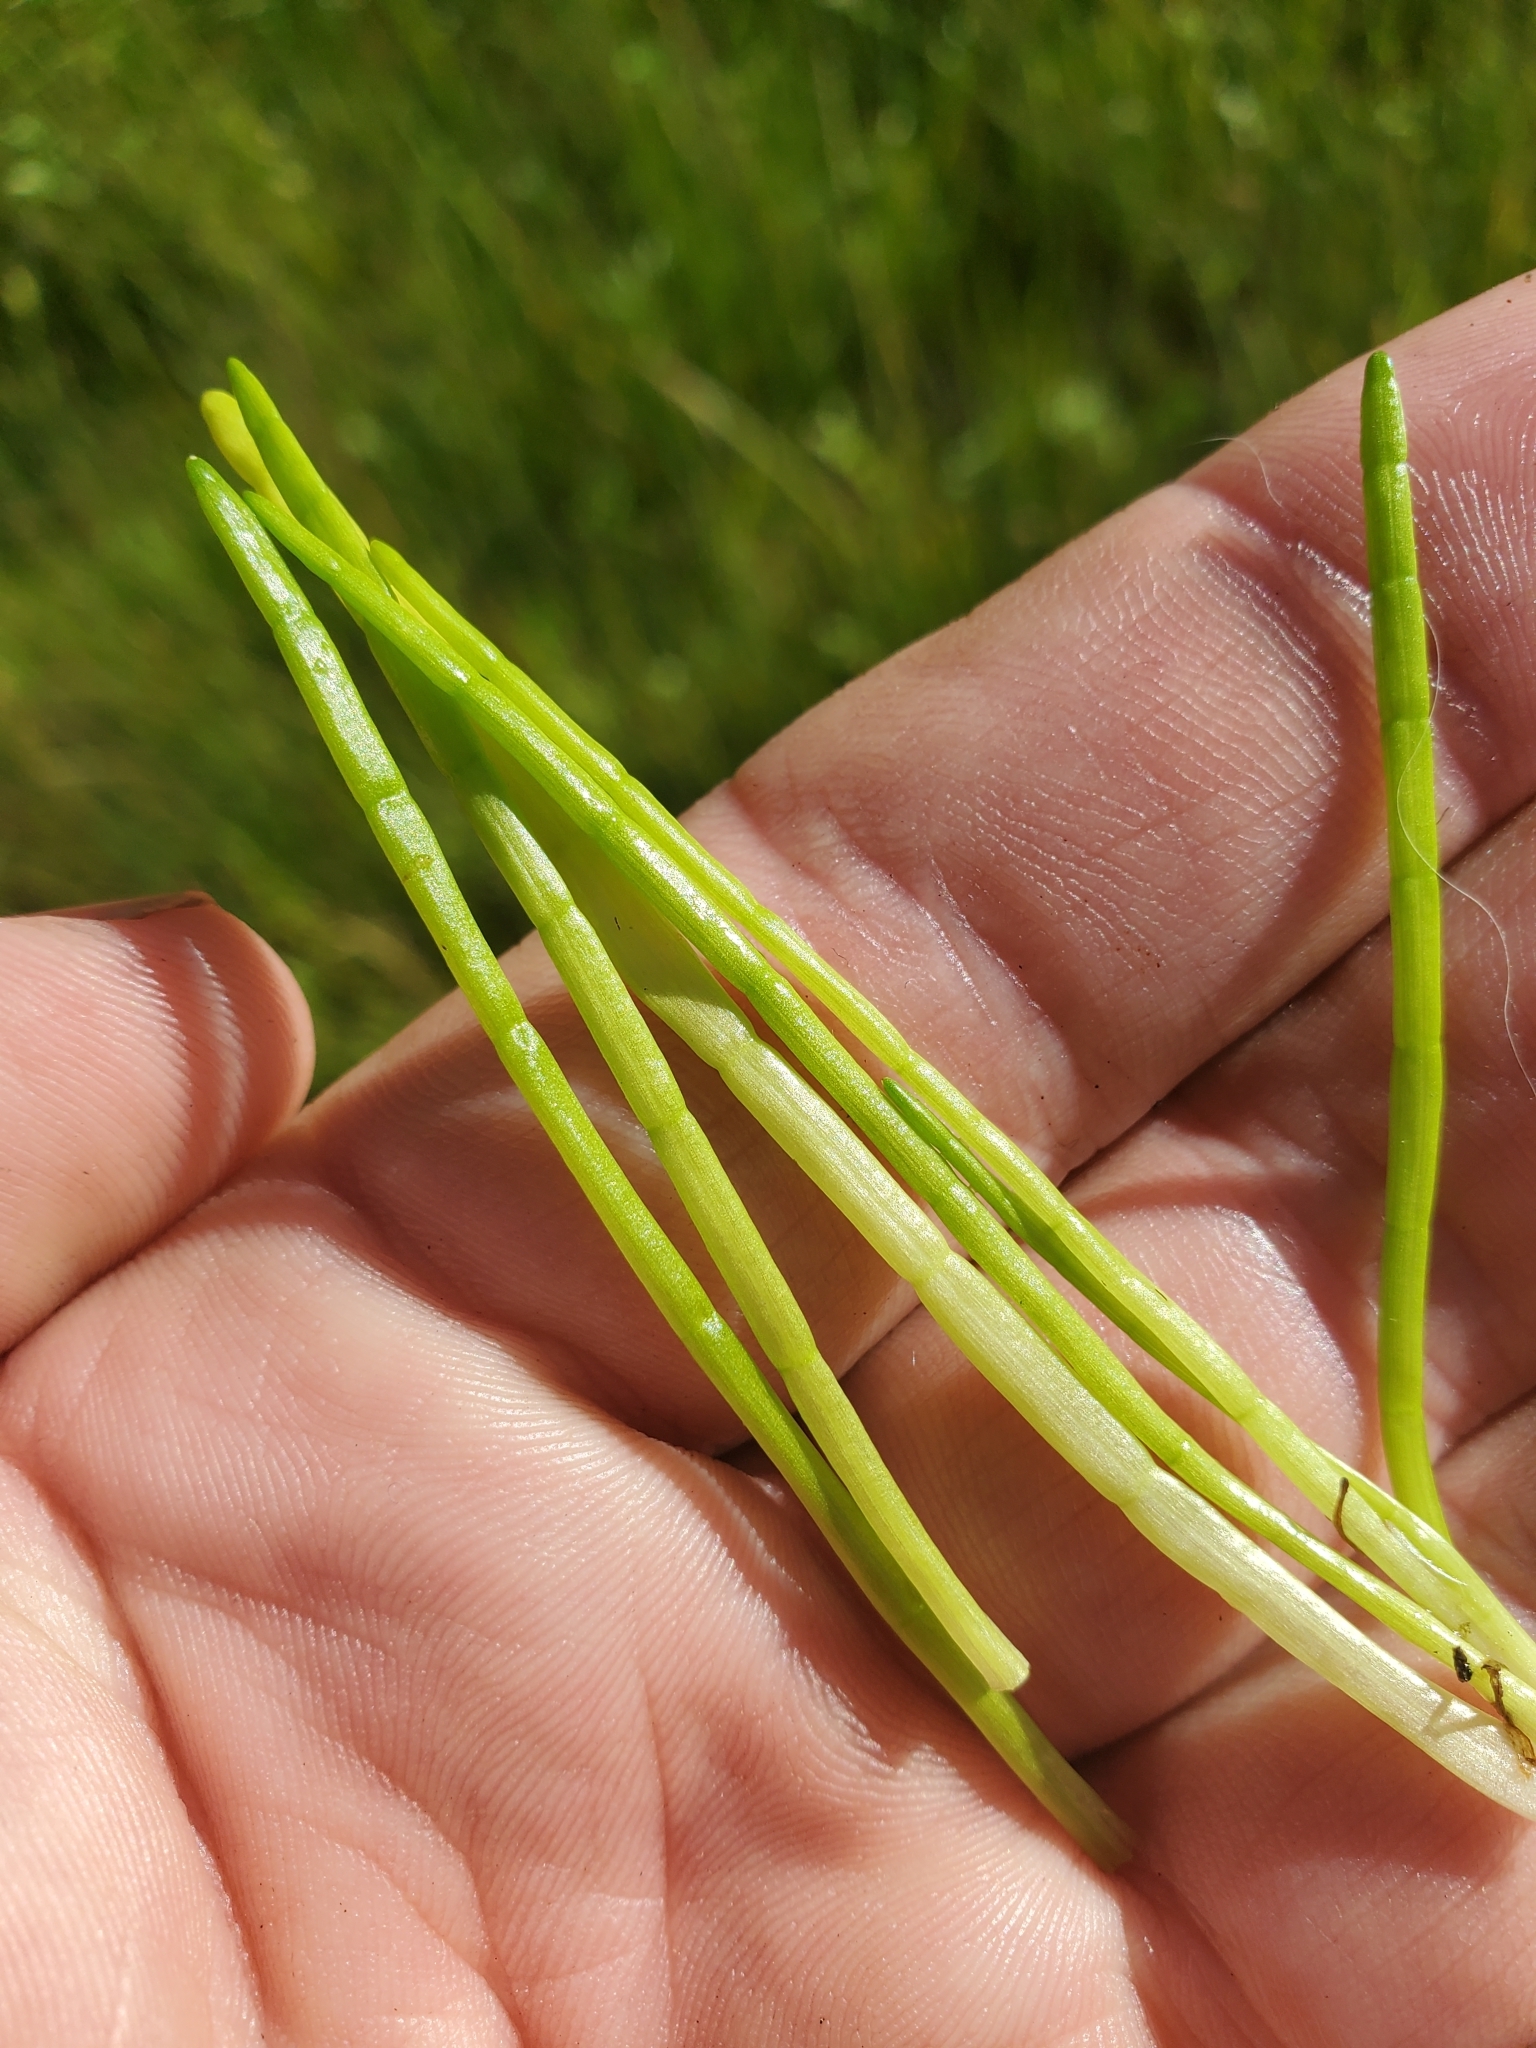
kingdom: Plantae
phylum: Tracheophyta
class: Magnoliopsida
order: Apiales
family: Apiaceae
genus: Lilaeopsis
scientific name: Lilaeopsis occidentalis
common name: Western grasswort
